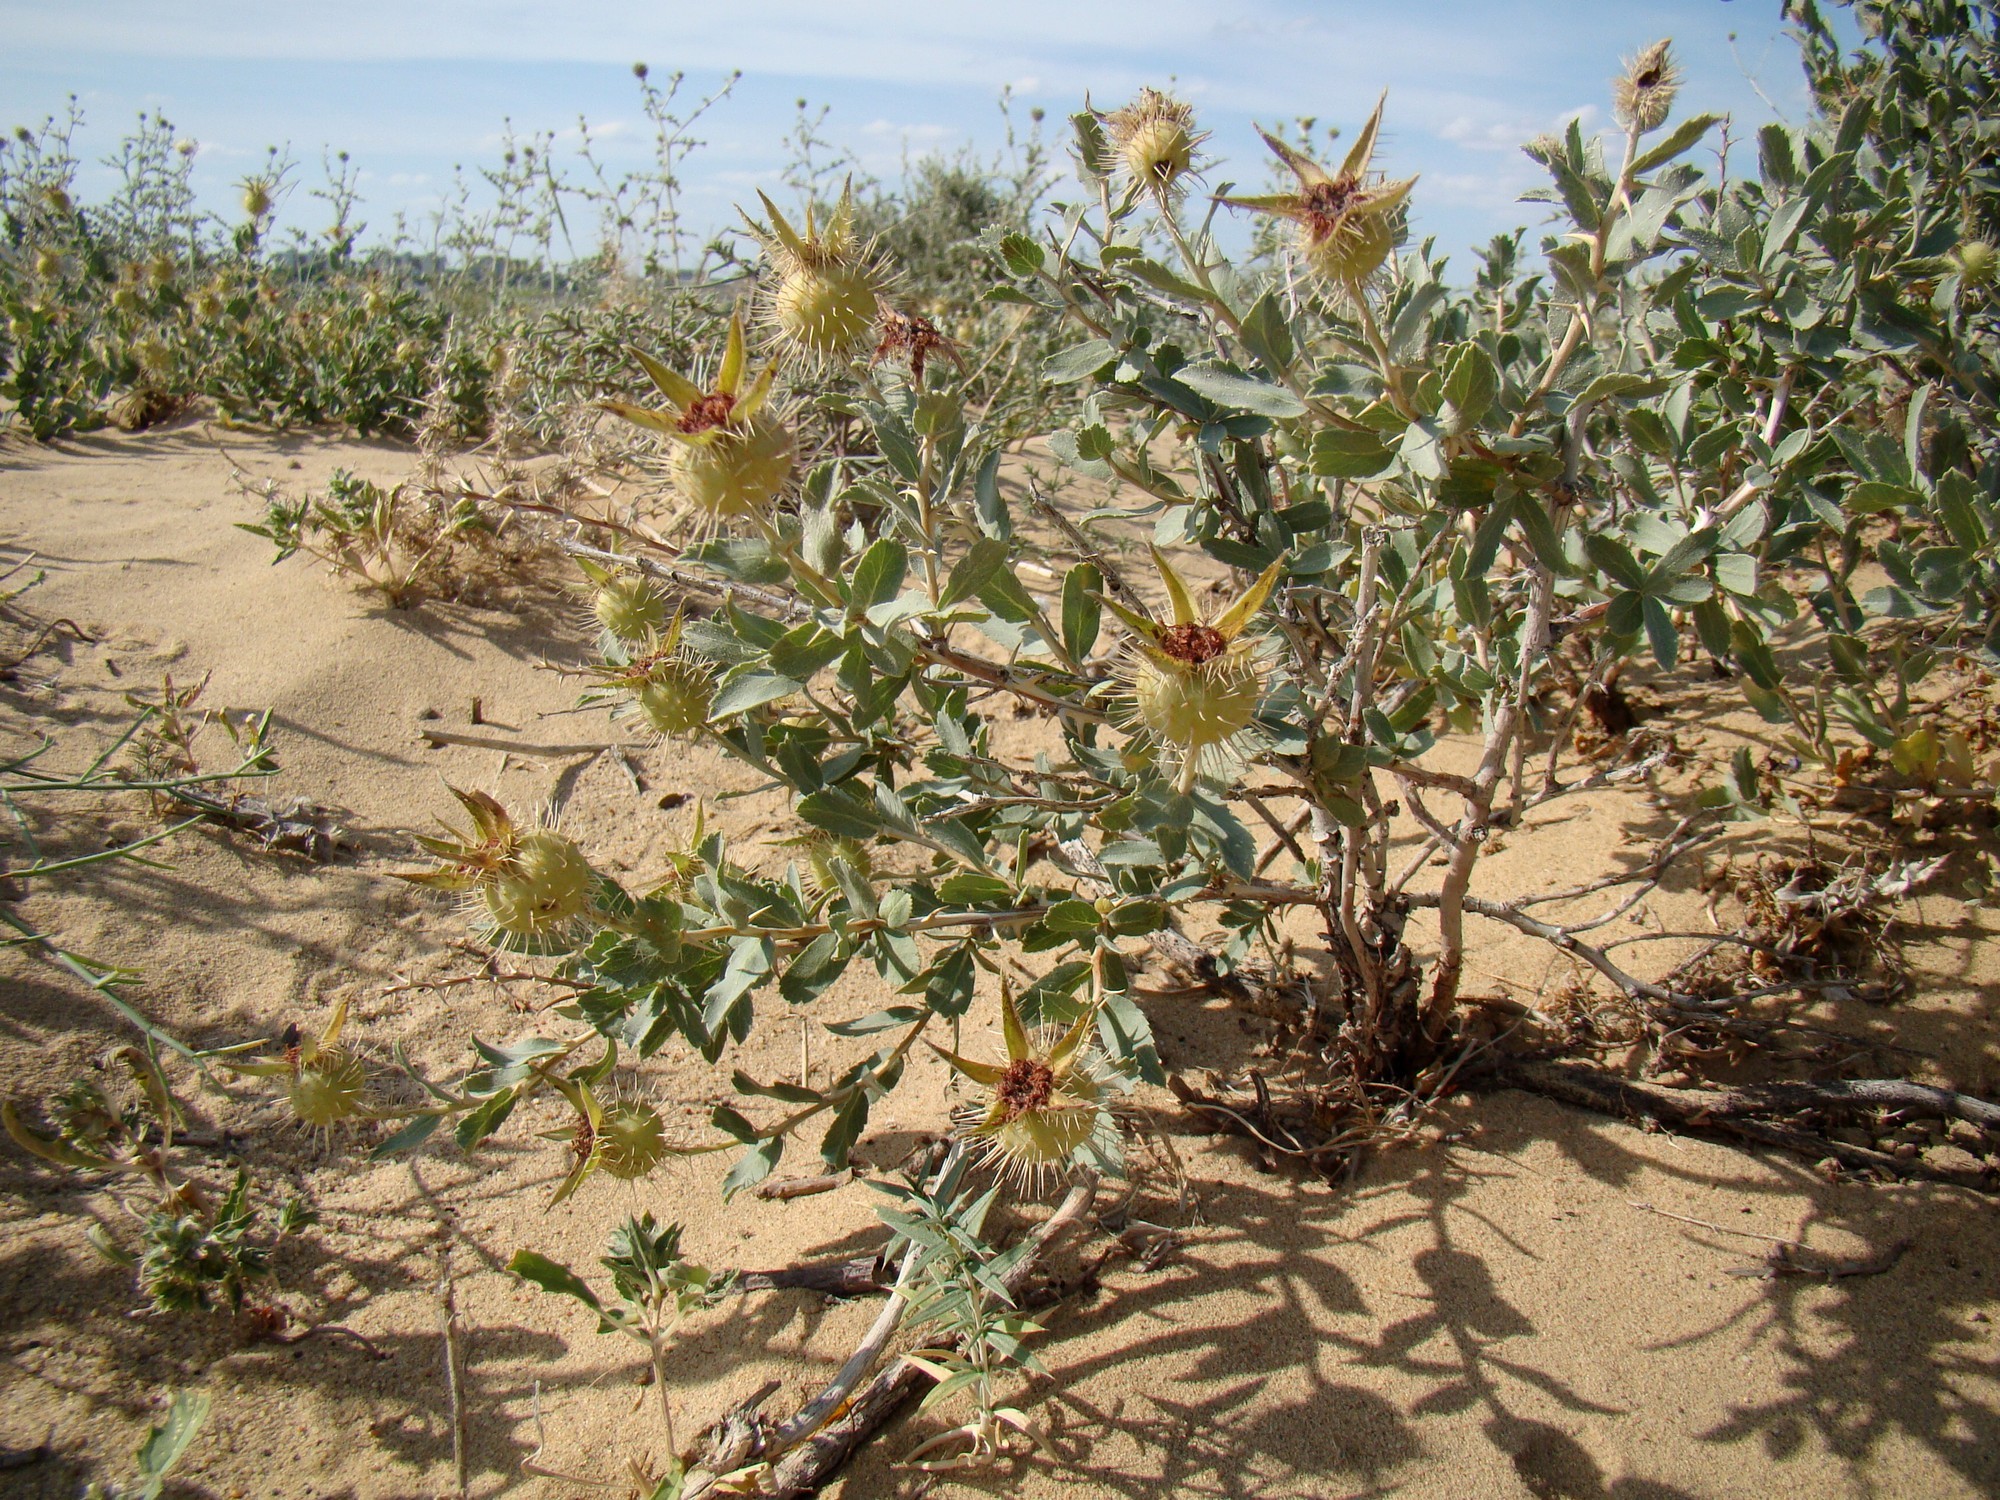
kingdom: Plantae
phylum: Tracheophyta
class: Magnoliopsida
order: Rosales
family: Rosaceae
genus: Rosa
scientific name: Rosa persica
